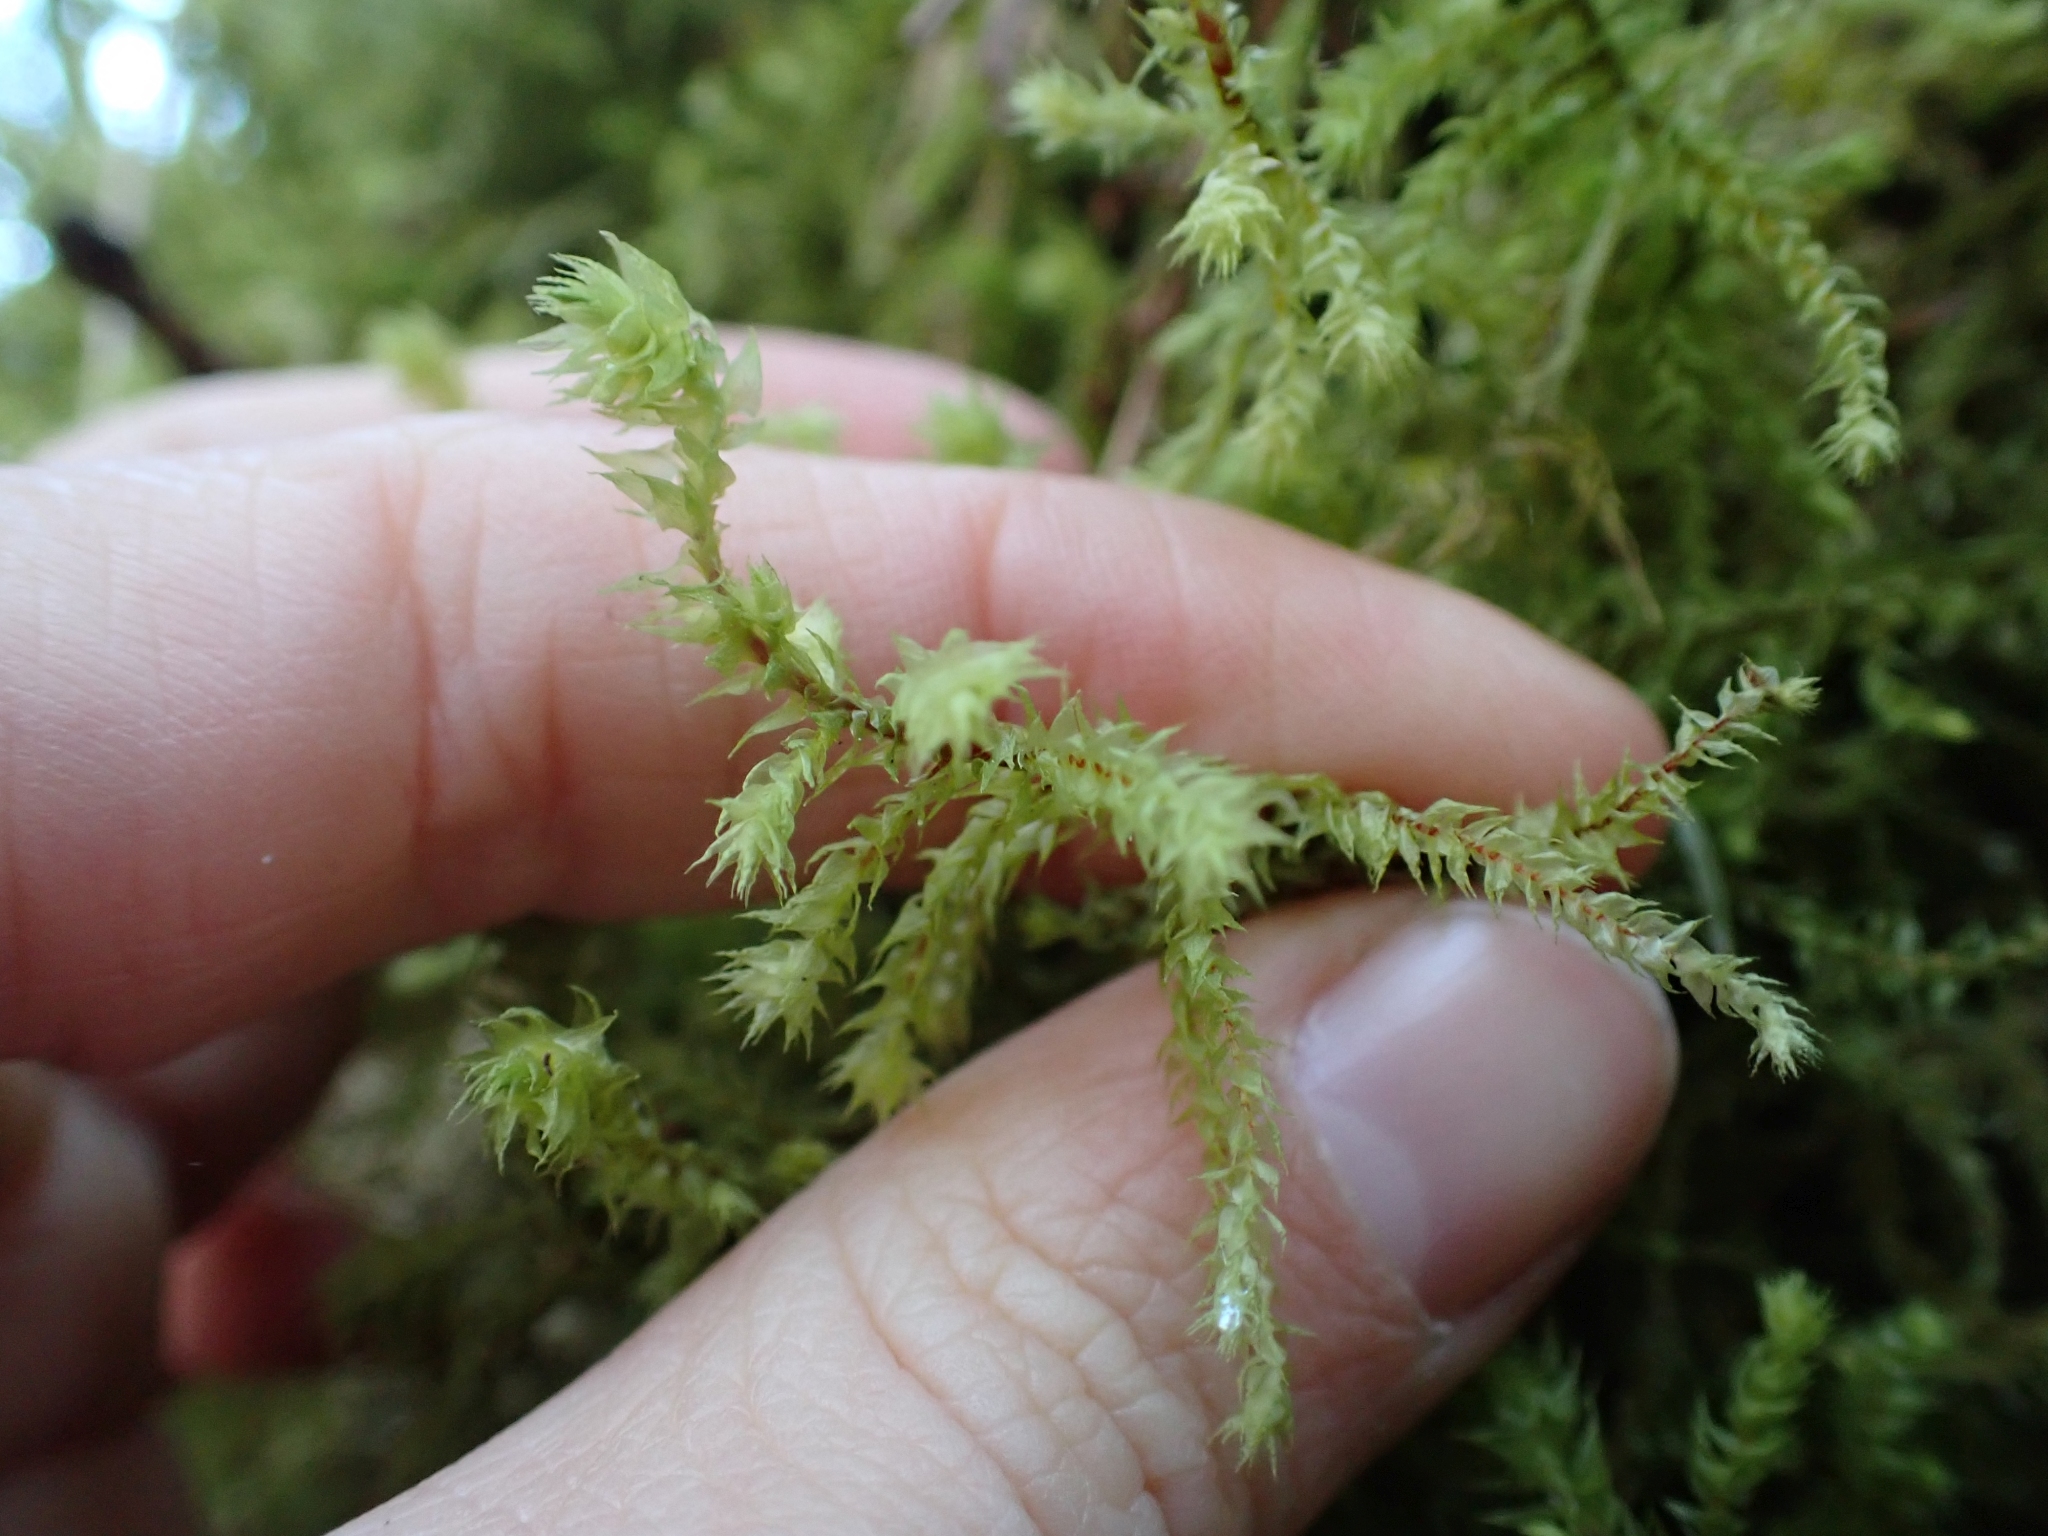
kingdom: Plantae
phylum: Bryophyta
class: Bryopsida
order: Hypnales
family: Hylocomiaceae
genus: Hylocomiadelphus
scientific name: Hylocomiadelphus triquetrus
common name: Rough goose neck moss
